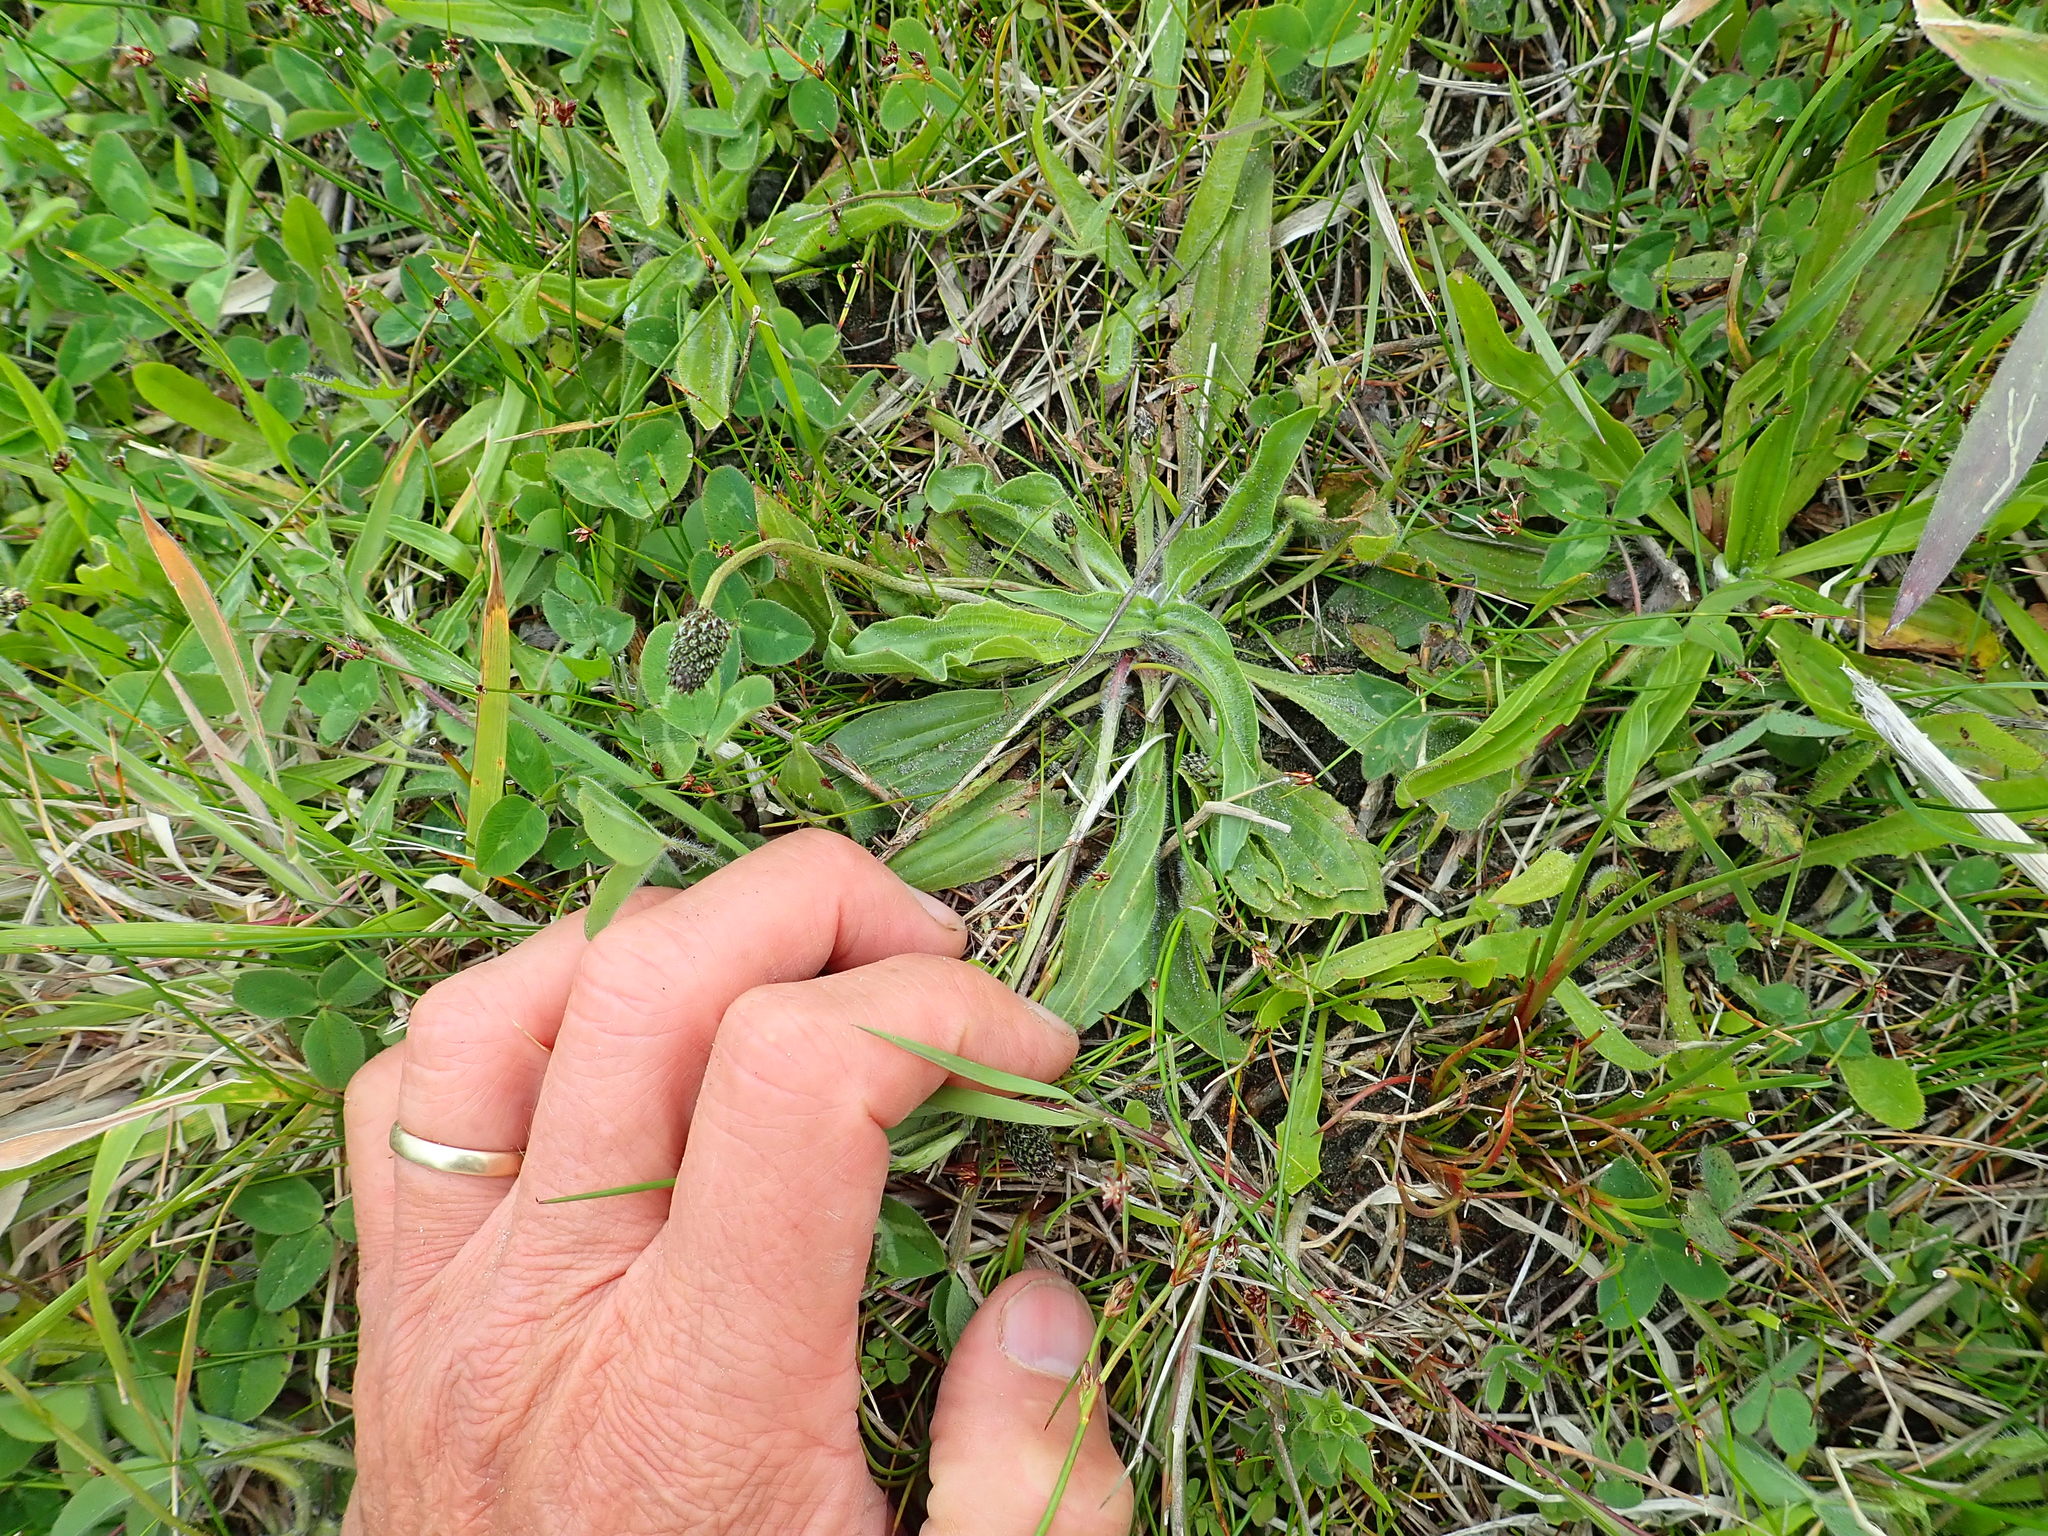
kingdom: Plantae
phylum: Tracheophyta
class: Magnoliopsida
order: Lamiales
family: Plantaginaceae
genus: Plantago
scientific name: Plantago lanceolata
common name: Ribwort plantain
